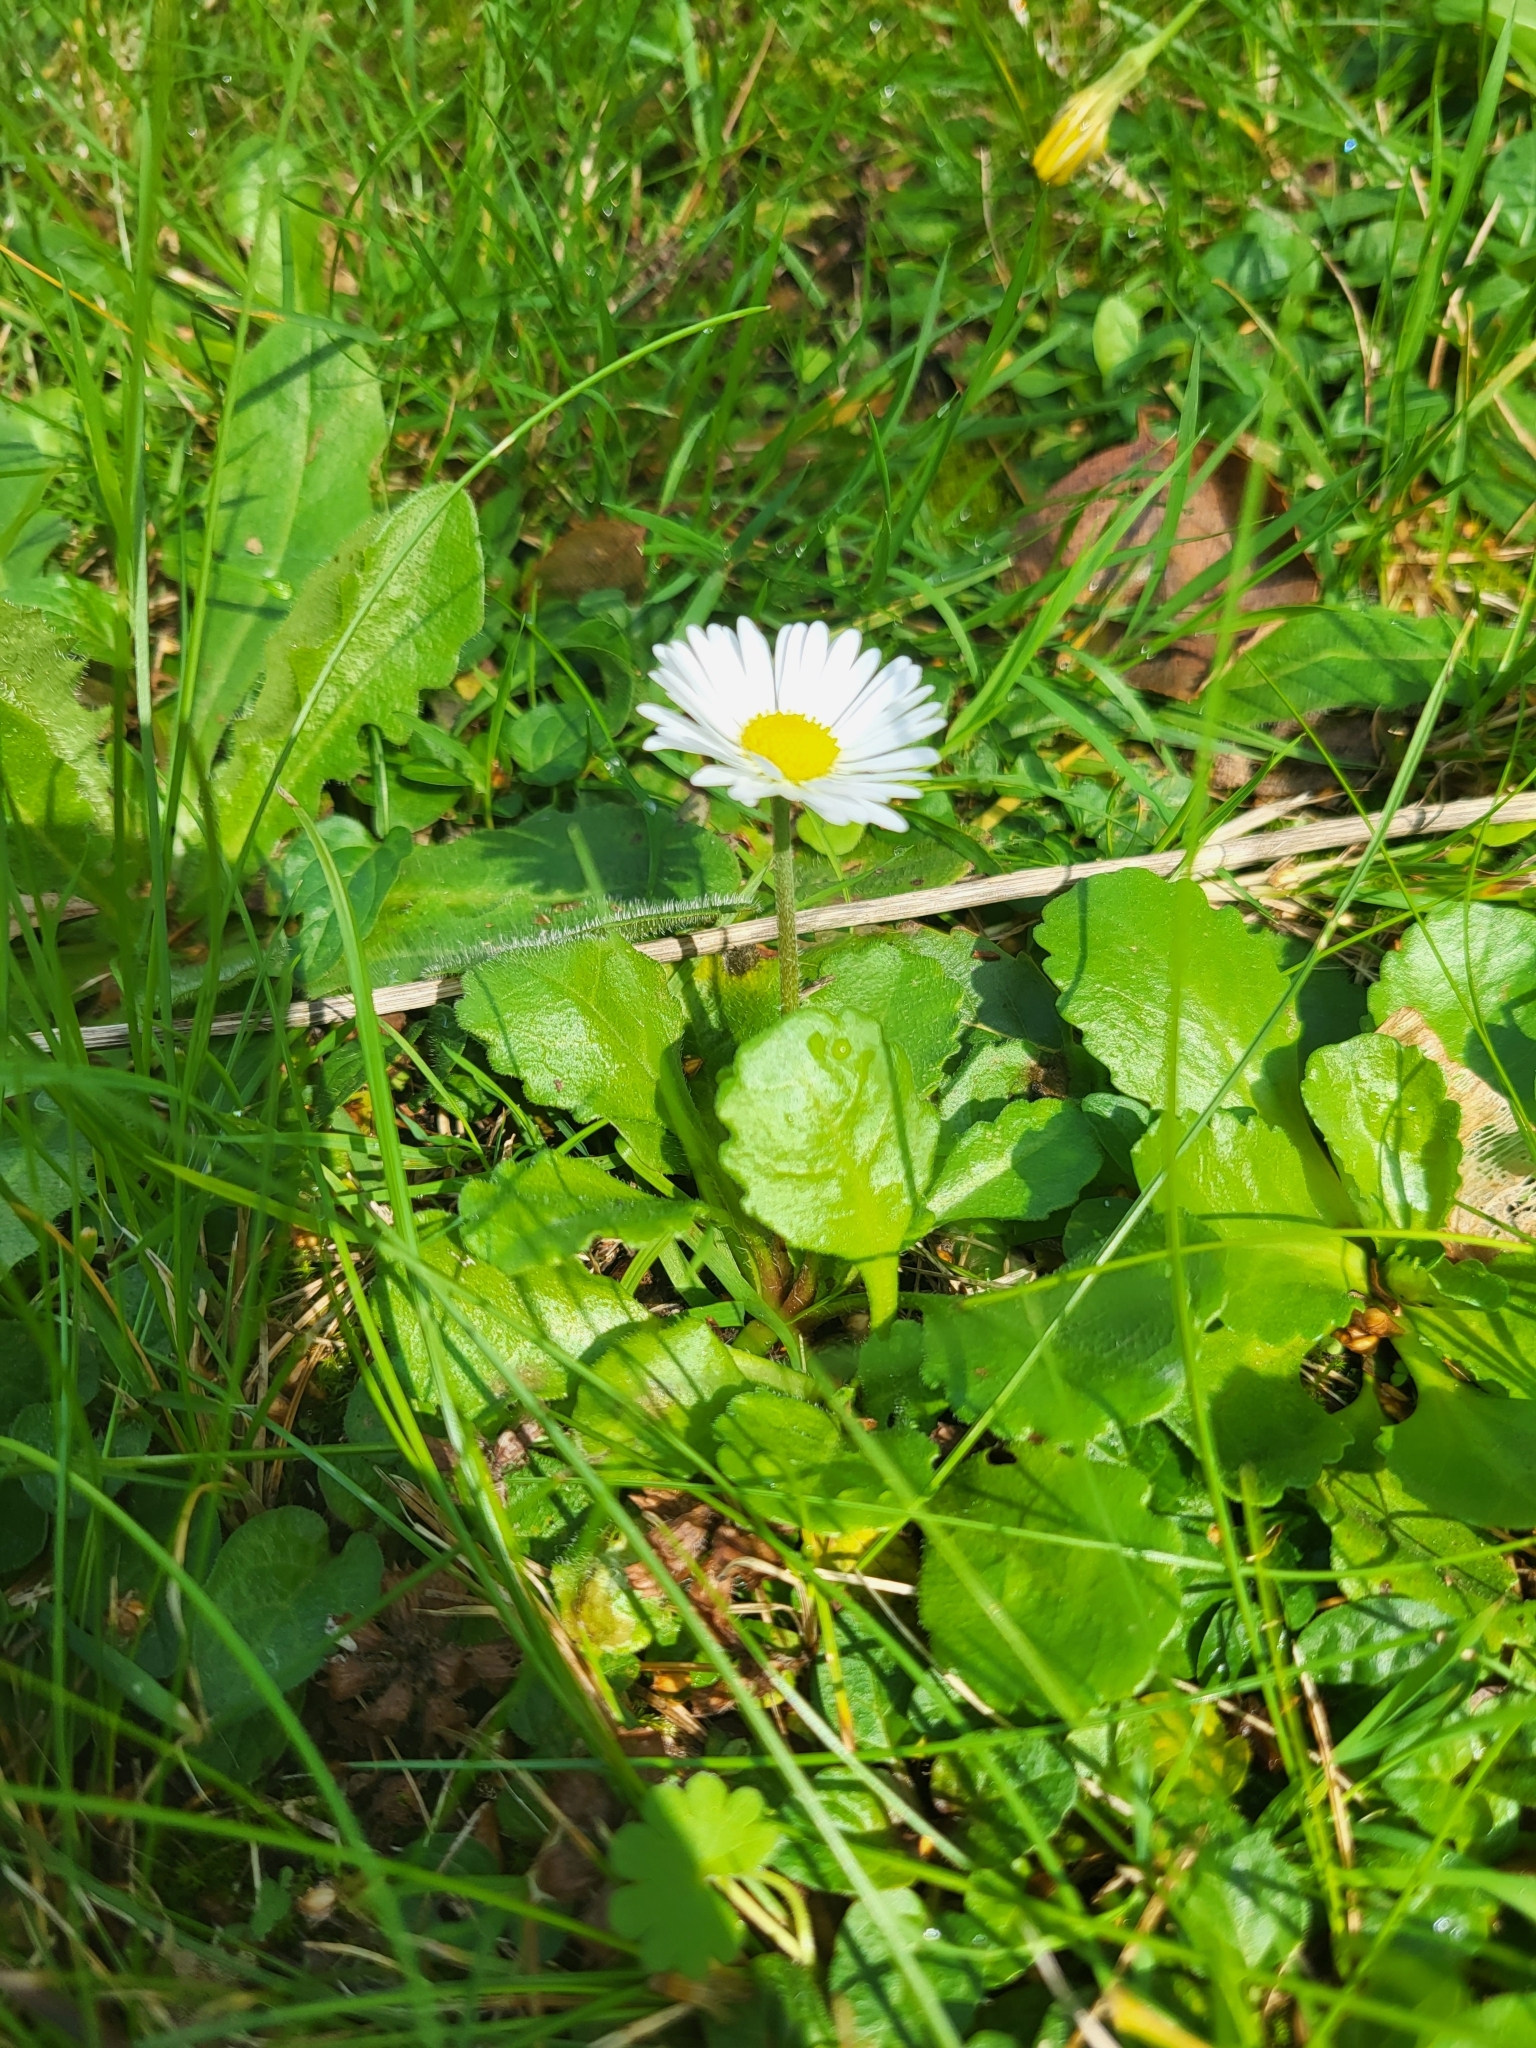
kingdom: Plantae
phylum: Tracheophyta
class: Magnoliopsida
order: Asterales
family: Asteraceae
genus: Bellis
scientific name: Bellis perennis
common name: Lawndaisy
